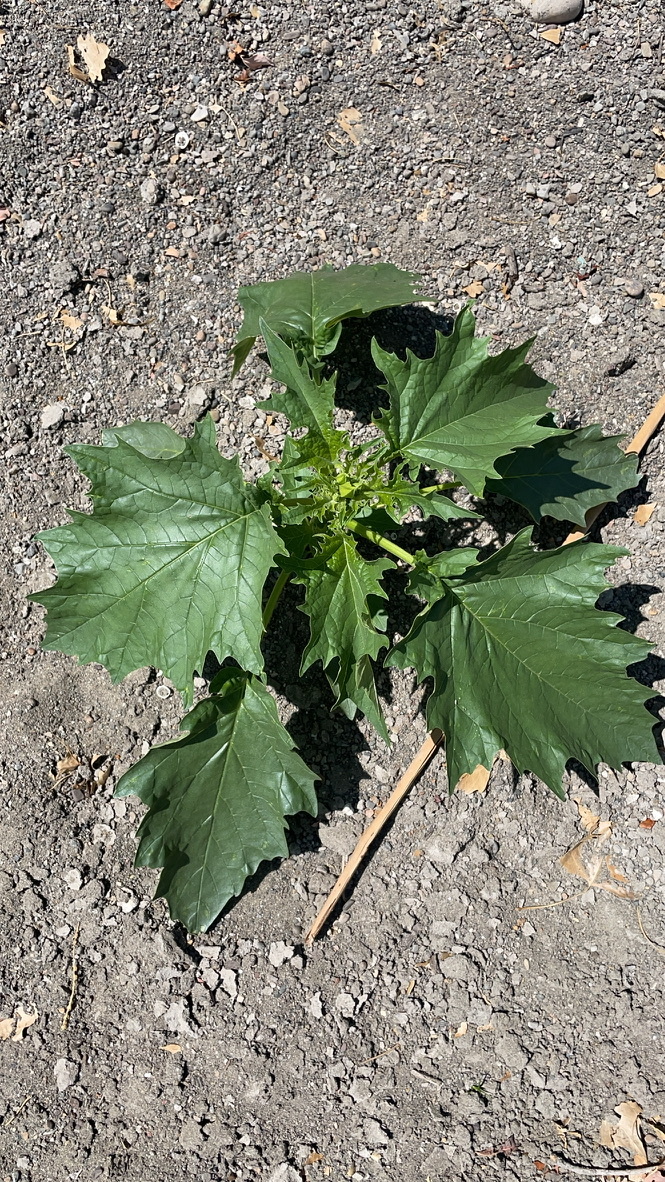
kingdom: Plantae
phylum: Tracheophyta
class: Magnoliopsida
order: Solanales
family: Solanaceae
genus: Datura
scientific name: Datura stramonium
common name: Thorn-apple
